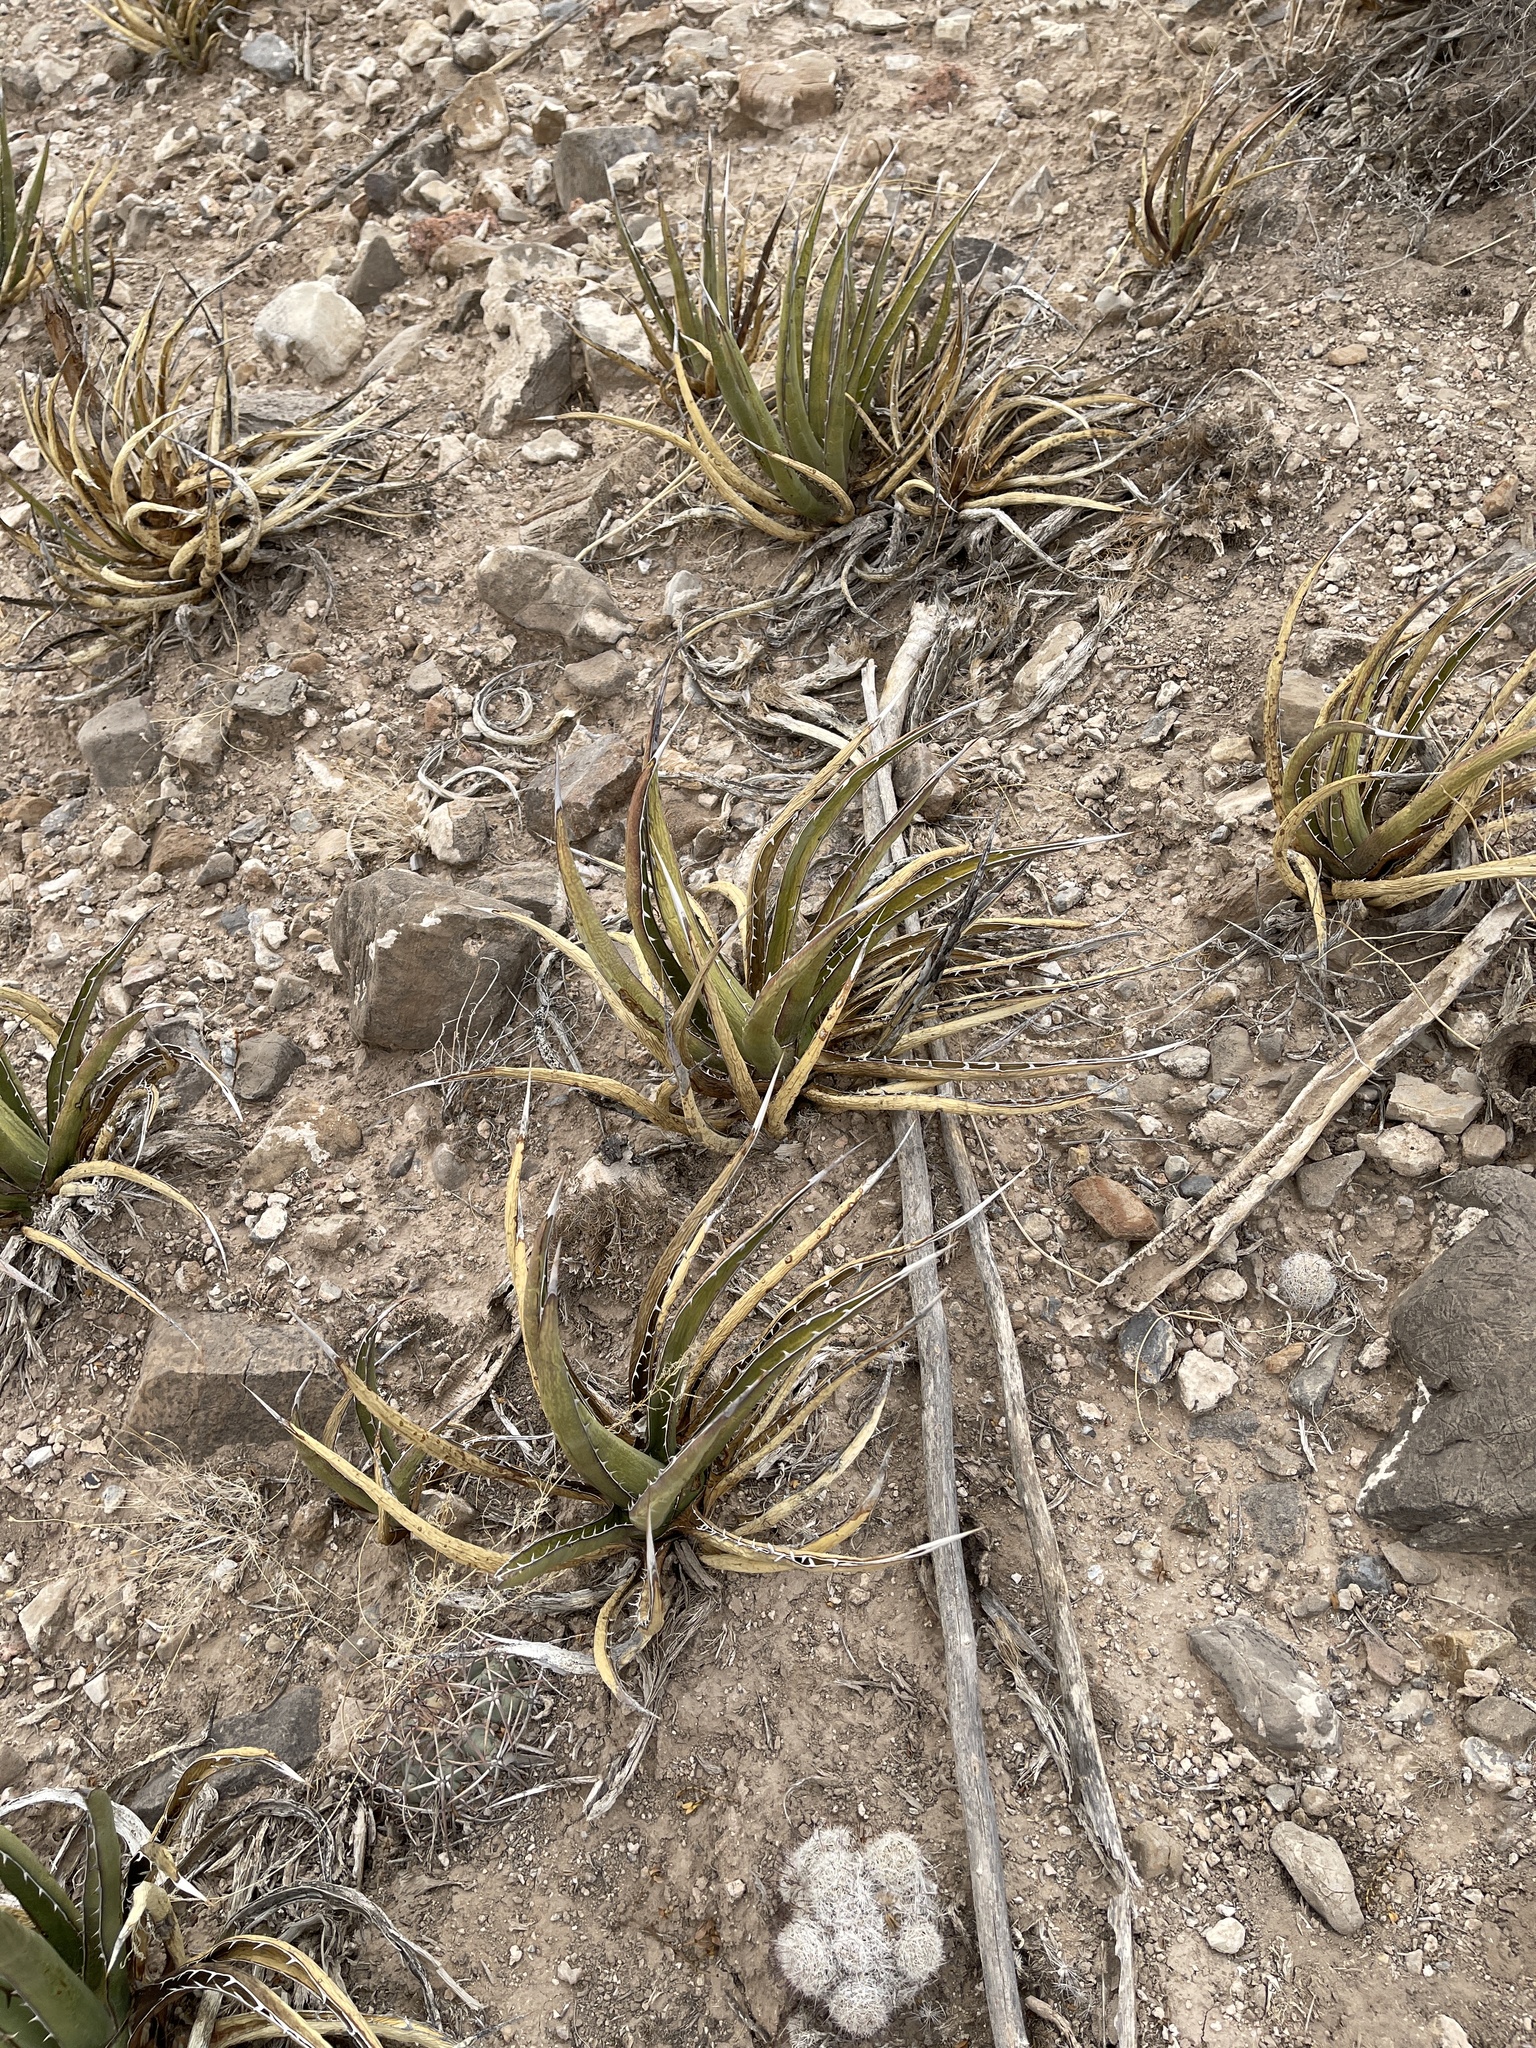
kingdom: Plantae
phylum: Tracheophyta
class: Liliopsida
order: Asparagales
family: Asparagaceae
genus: Agave
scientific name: Agave lechuguilla
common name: Lecheguilla agave
